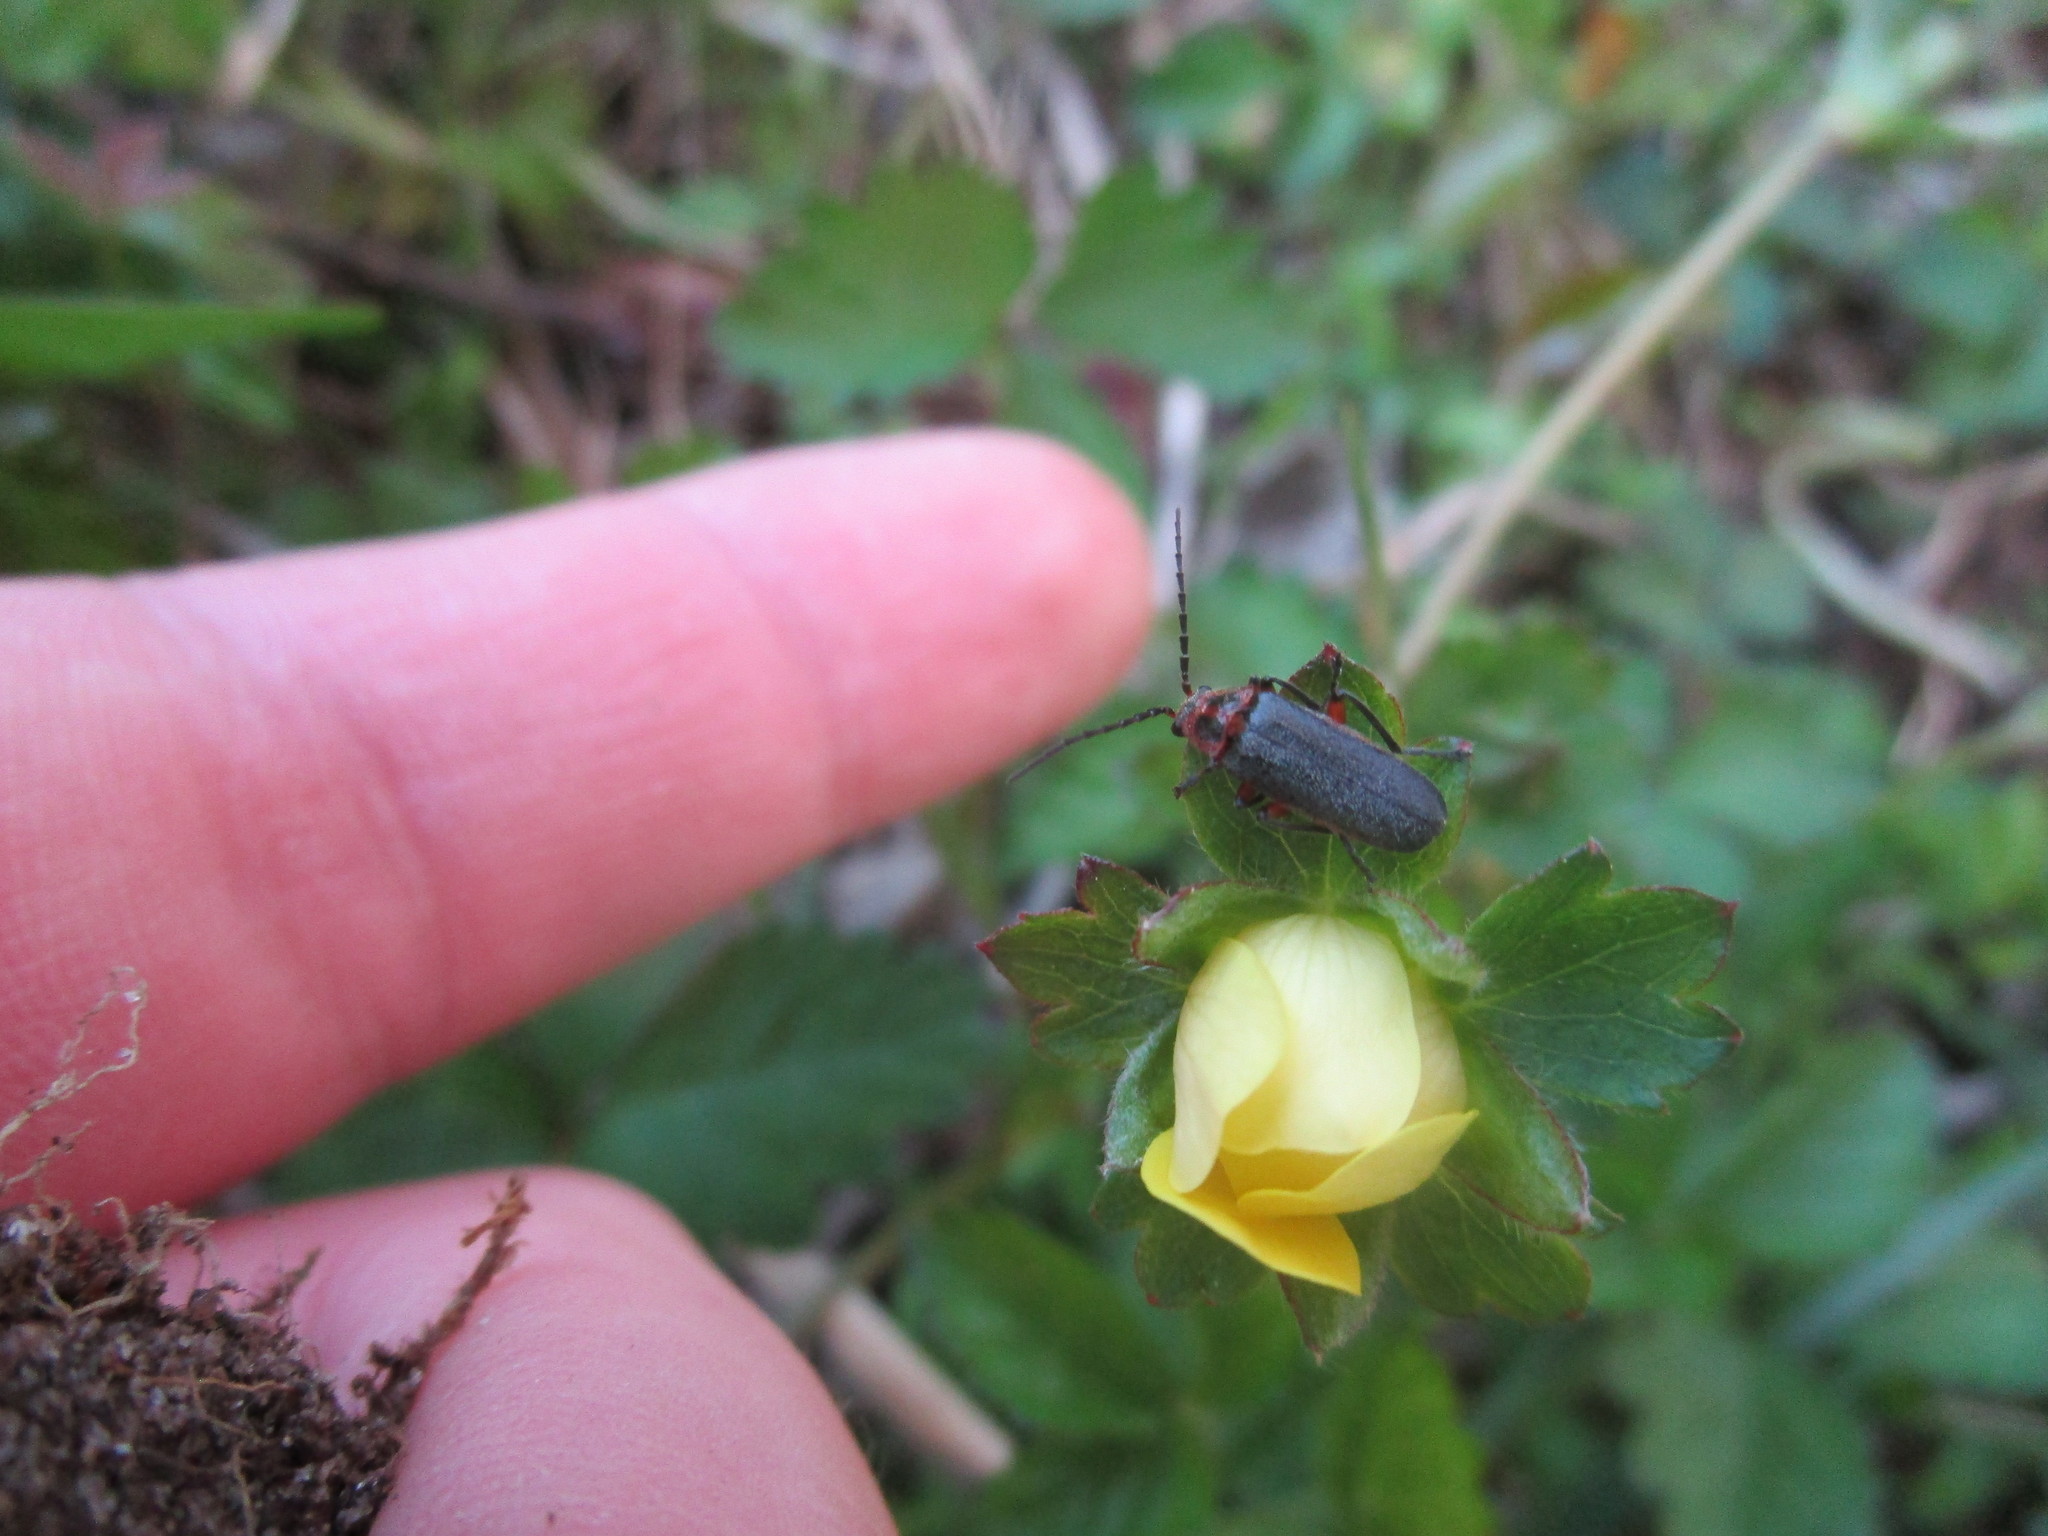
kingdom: Animalia
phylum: Arthropoda
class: Insecta
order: Coleoptera
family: Cantharidae
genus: Atalantycha
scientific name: Atalantycha bilineata
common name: Two-lined leatherwing
